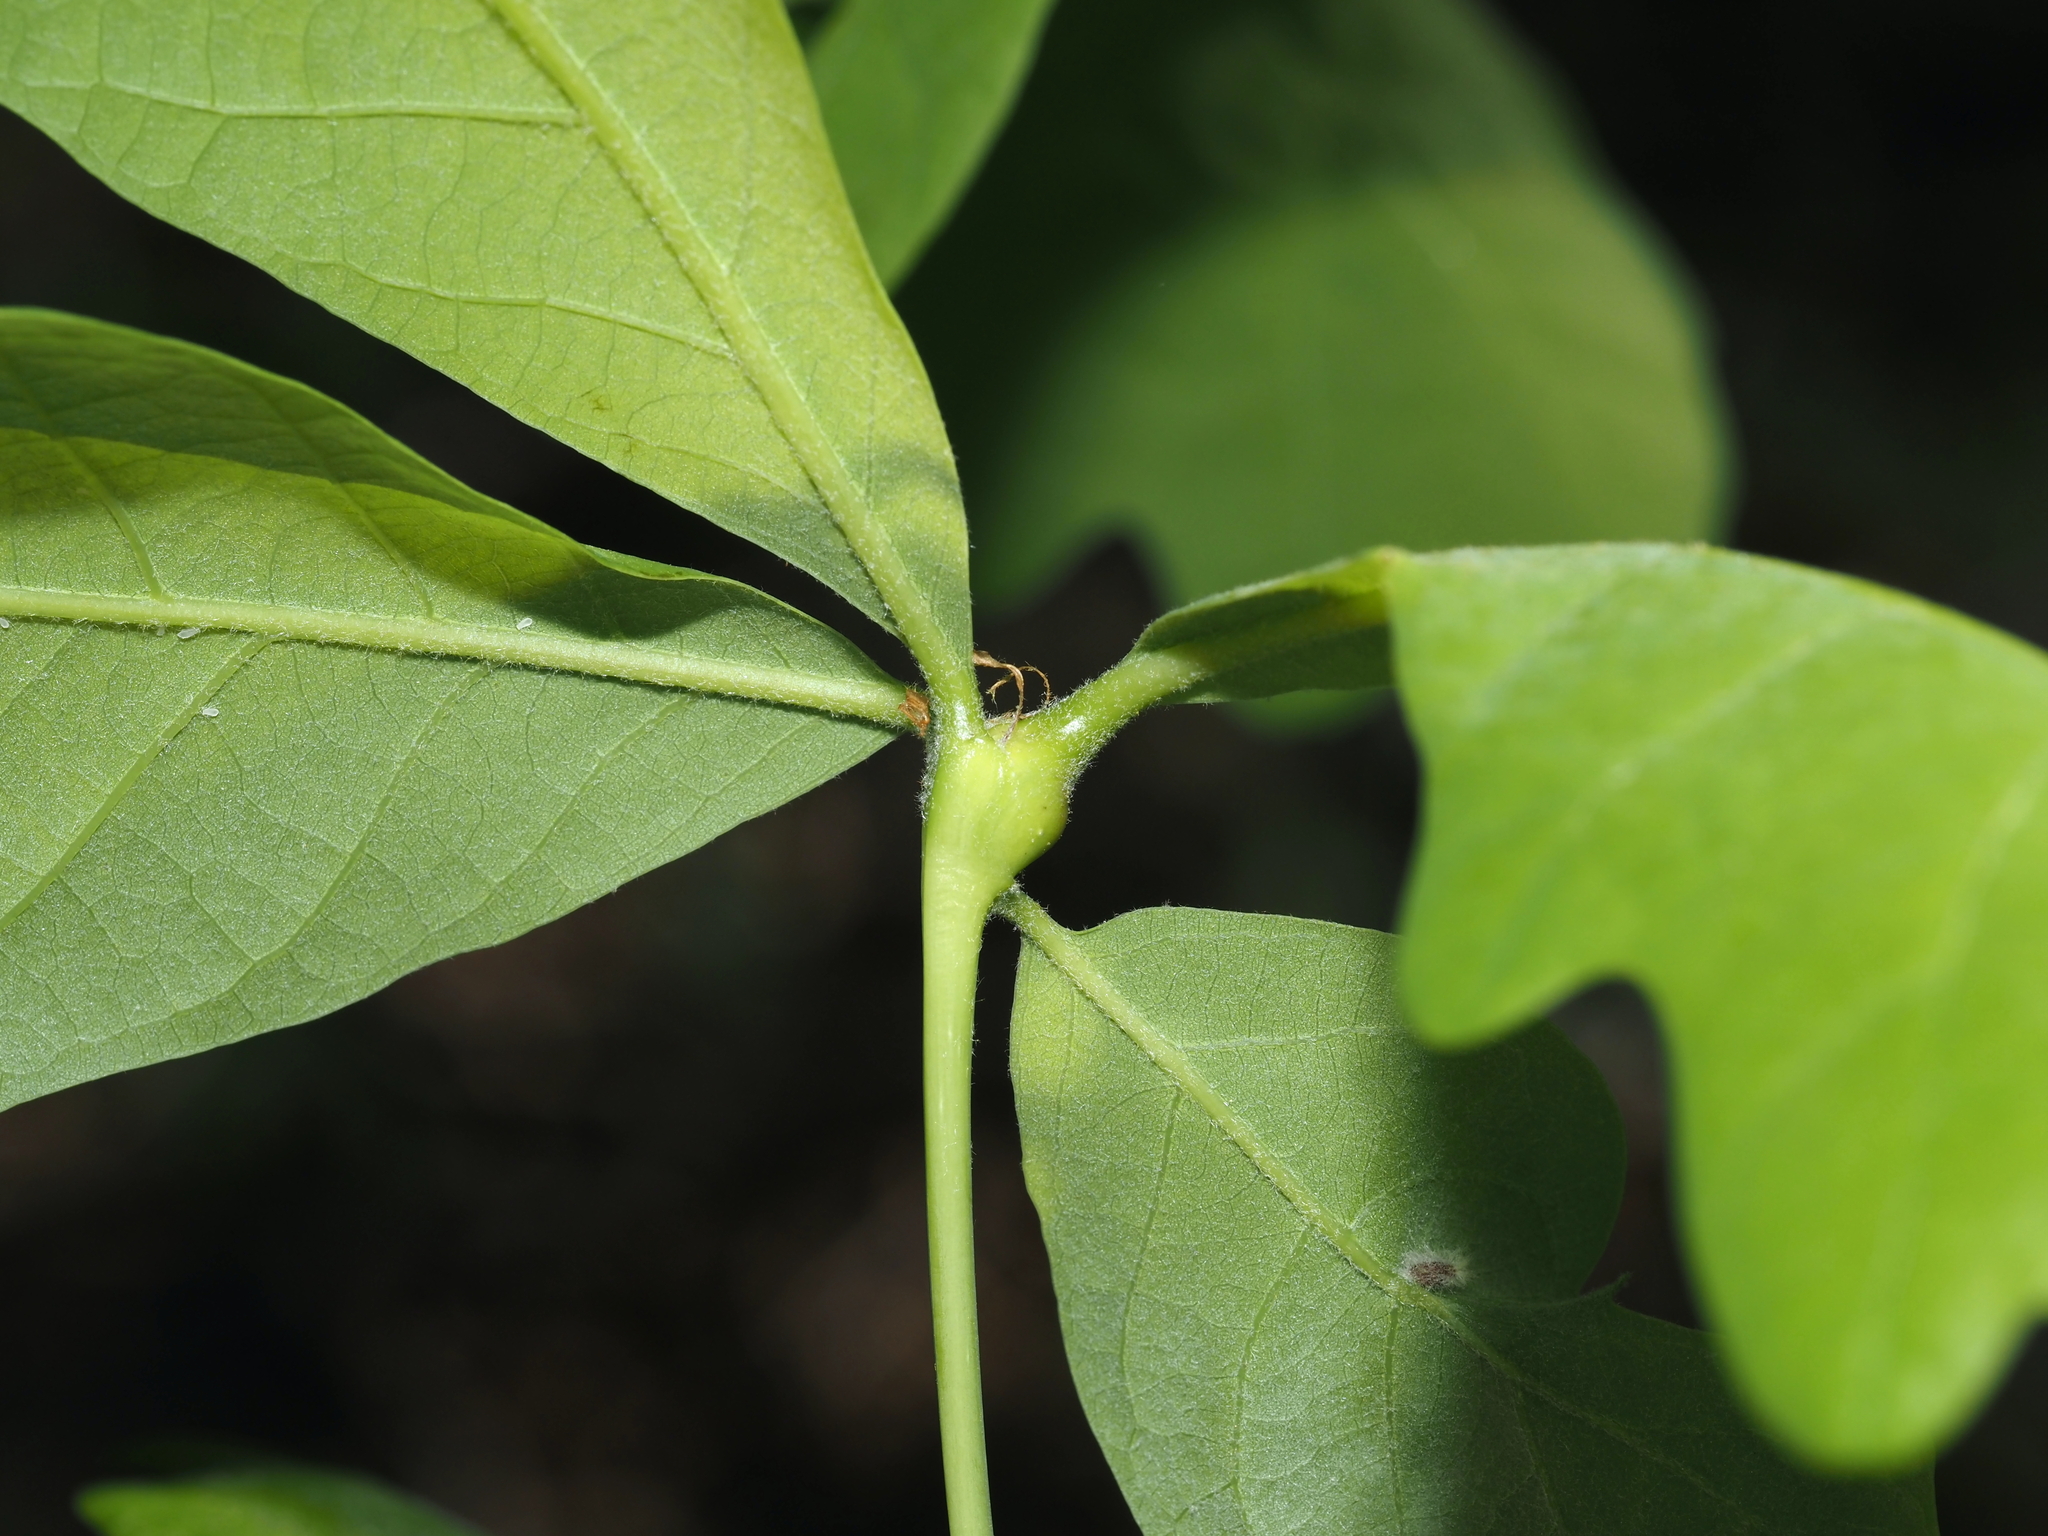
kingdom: Animalia
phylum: Arthropoda
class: Insecta
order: Hymenoptera
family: Cynipidae
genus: Callirhytis
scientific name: Callirhytis clavula
